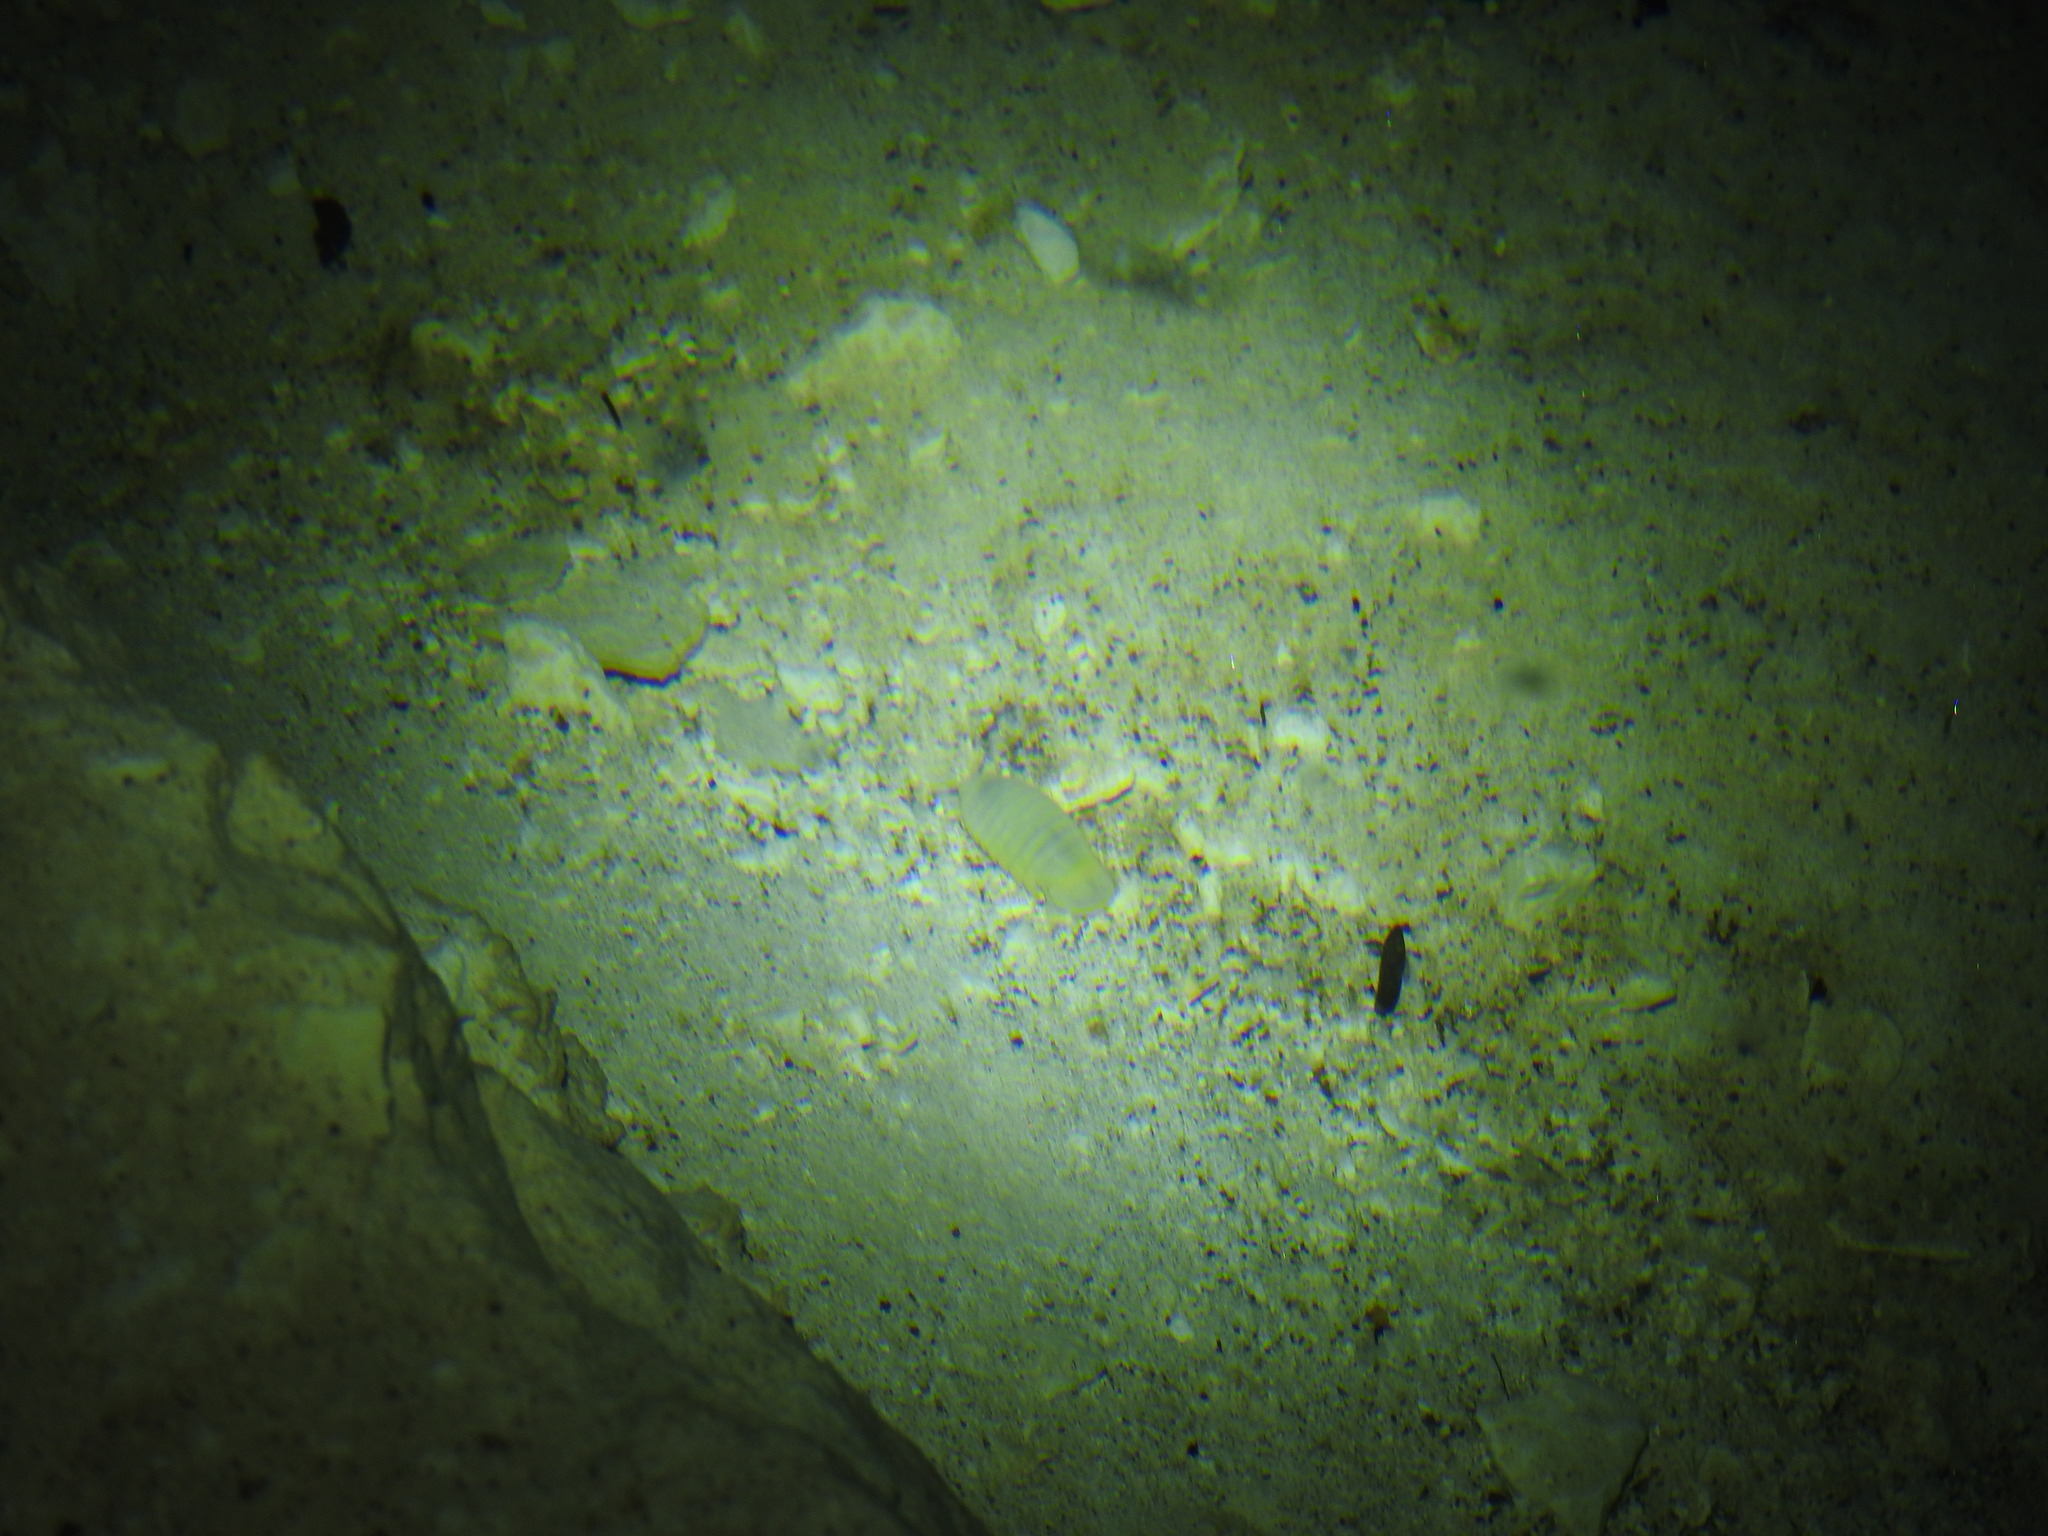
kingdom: Animalia
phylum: Arthropoda
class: Malacostraca
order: Isopoda
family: Cirolanidae
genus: Creaseriella
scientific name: Creaseriella anops
